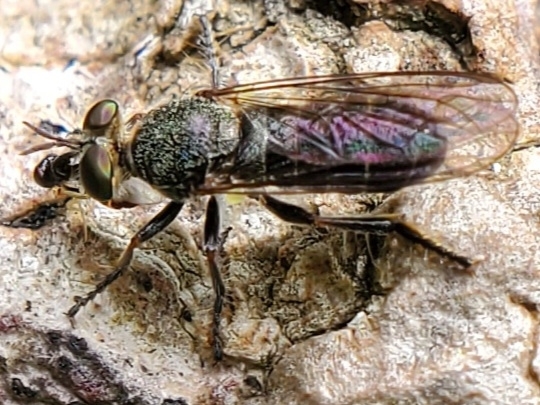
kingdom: Animalia
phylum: Arthropoda
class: Insecta
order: Diptera
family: Asilidae
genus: Atomosia
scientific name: Atomosia puella
